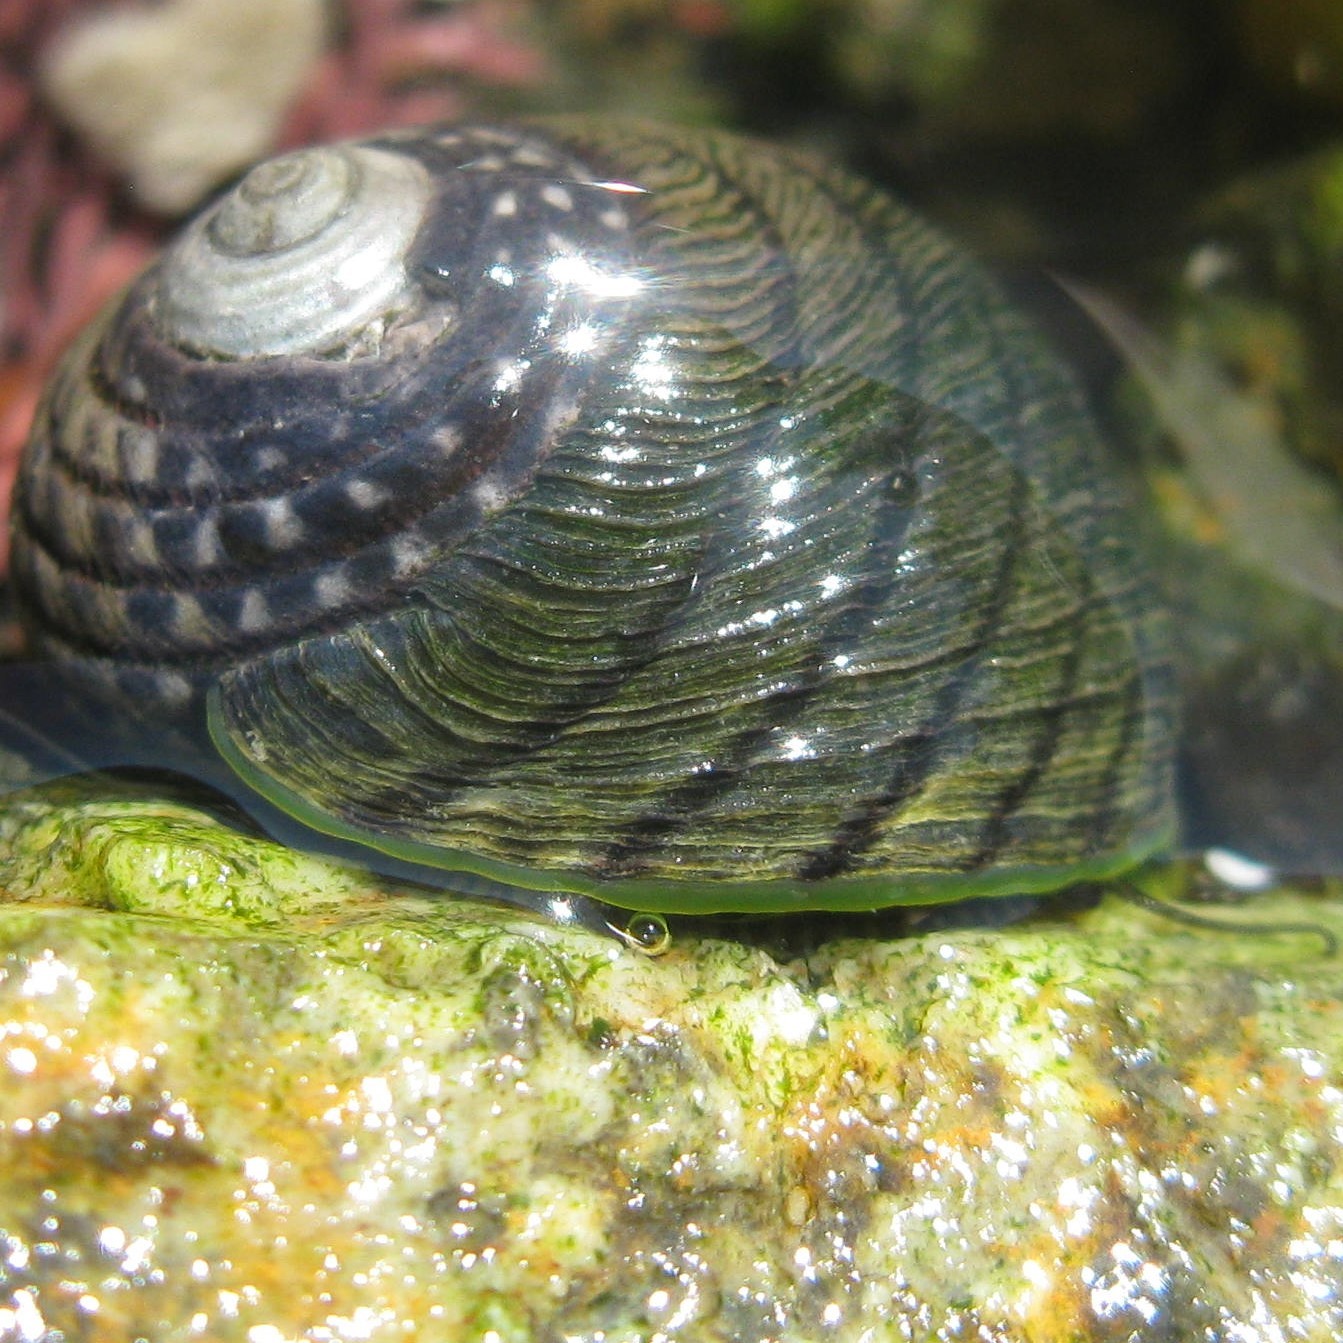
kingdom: Animalia
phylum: Mollusca
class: Gastropoda
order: Trochida
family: Trochidae
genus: Diloma
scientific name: Diloma aethiops
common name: Scorched monodont
